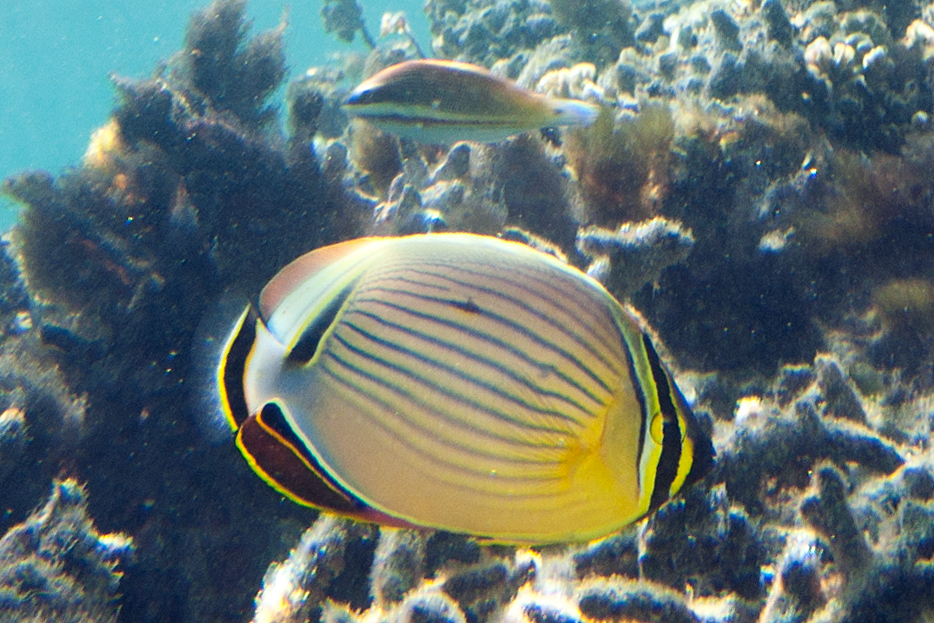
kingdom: Animalia
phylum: Chordata
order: Perciformes
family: Chaetodontidae
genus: Chaetodon
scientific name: Chaetodon lunulatus
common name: Redfin butterflyfish
